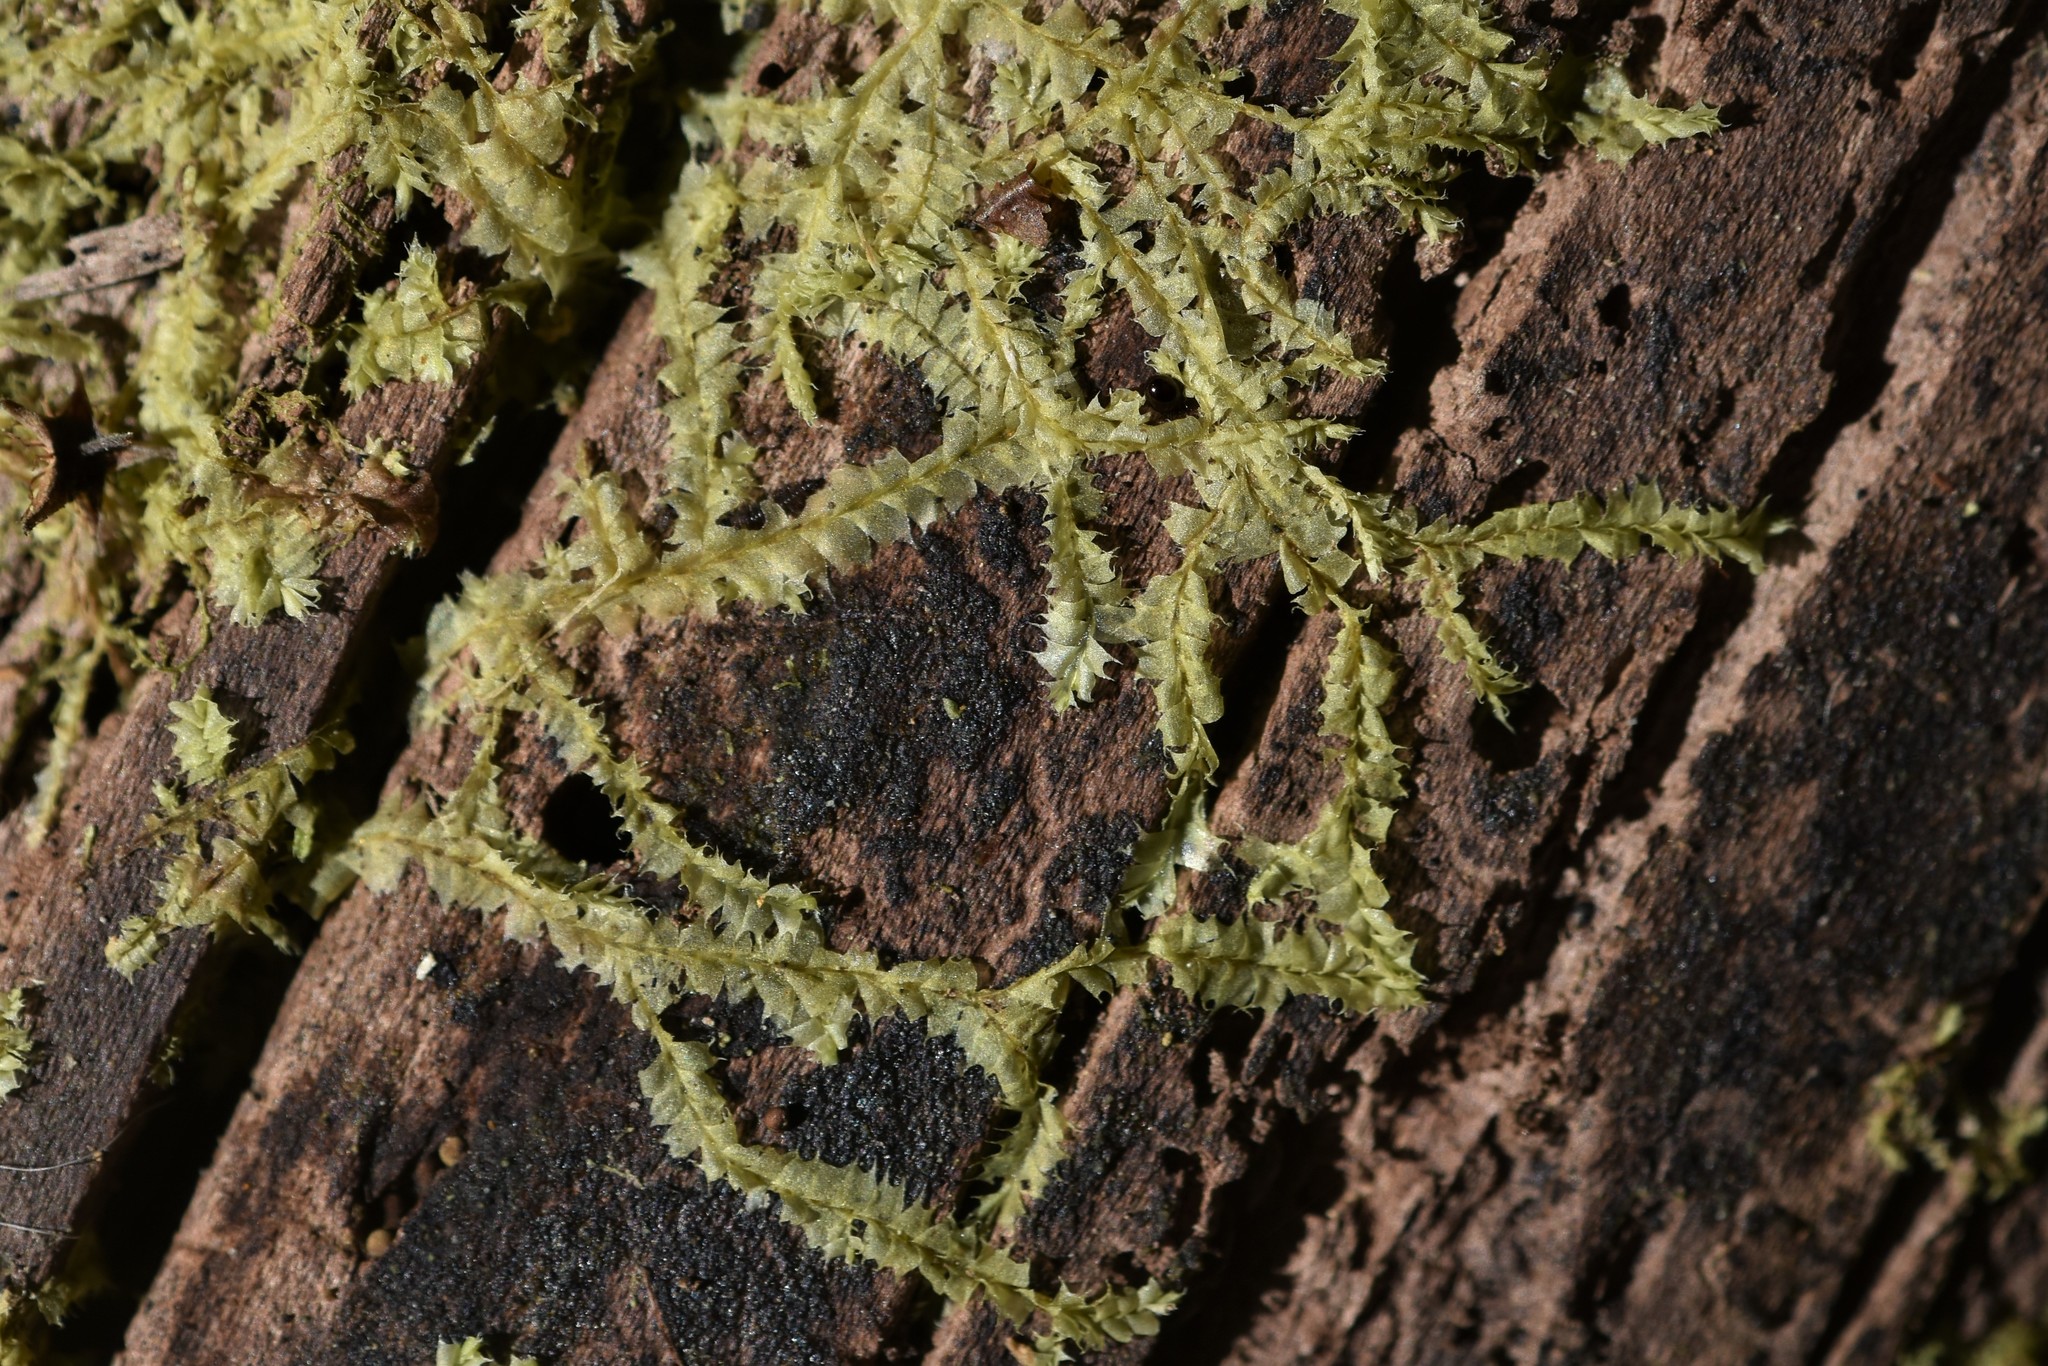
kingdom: Plantae
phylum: Marchantiophyta
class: Jungermanniopsida
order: Jungermanniales
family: Lophocoleaceae
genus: Lophocolea
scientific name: Lophocolea bidentata
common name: Bifid crestwort
